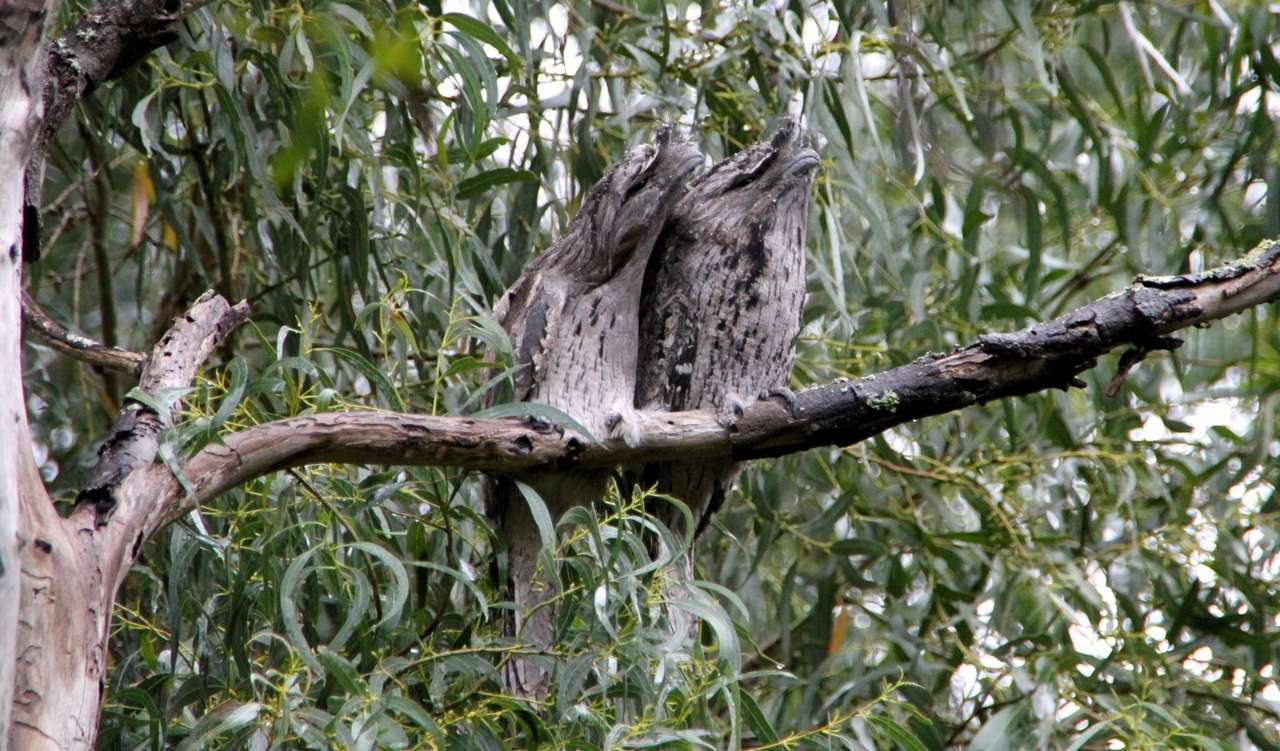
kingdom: Animalia
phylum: Chordata
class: Aves
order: Caprimulgiformes
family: Podargidae
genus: Podargus
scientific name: Podargus strigoides
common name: Tawny frogmouth
